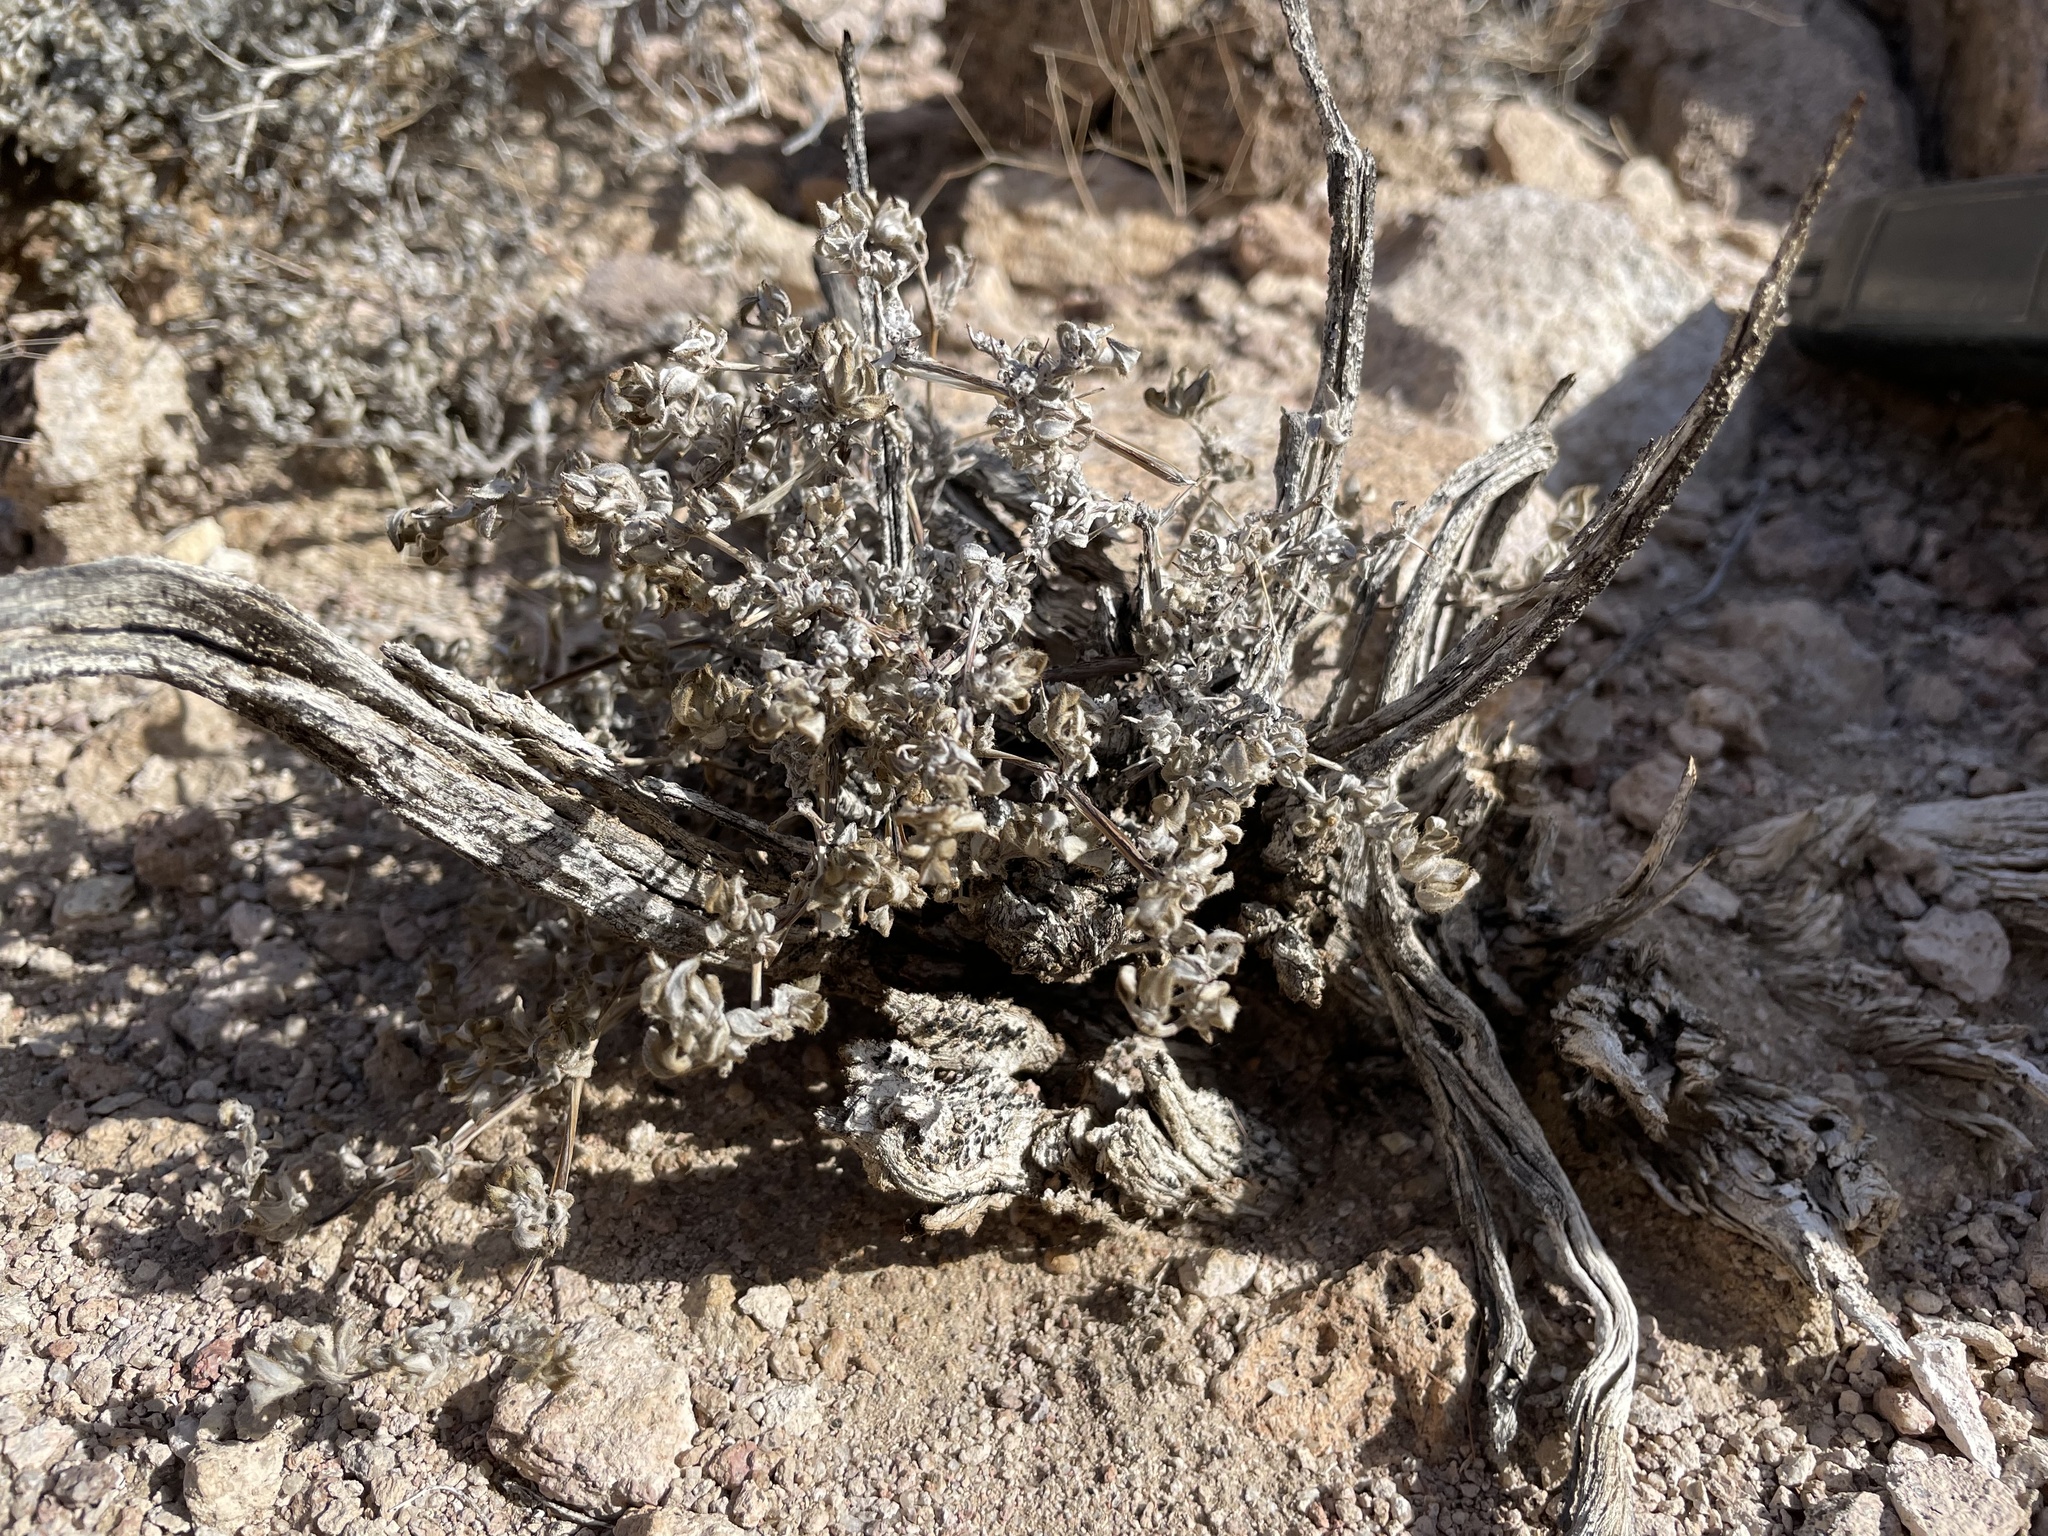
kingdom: Plantae
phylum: Tracheophyta
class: Magnoliopsida
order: Boraginales
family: Ehretiaceae
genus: Tiquilia
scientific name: Tiquilia canescens
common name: Hairy tiquilia
